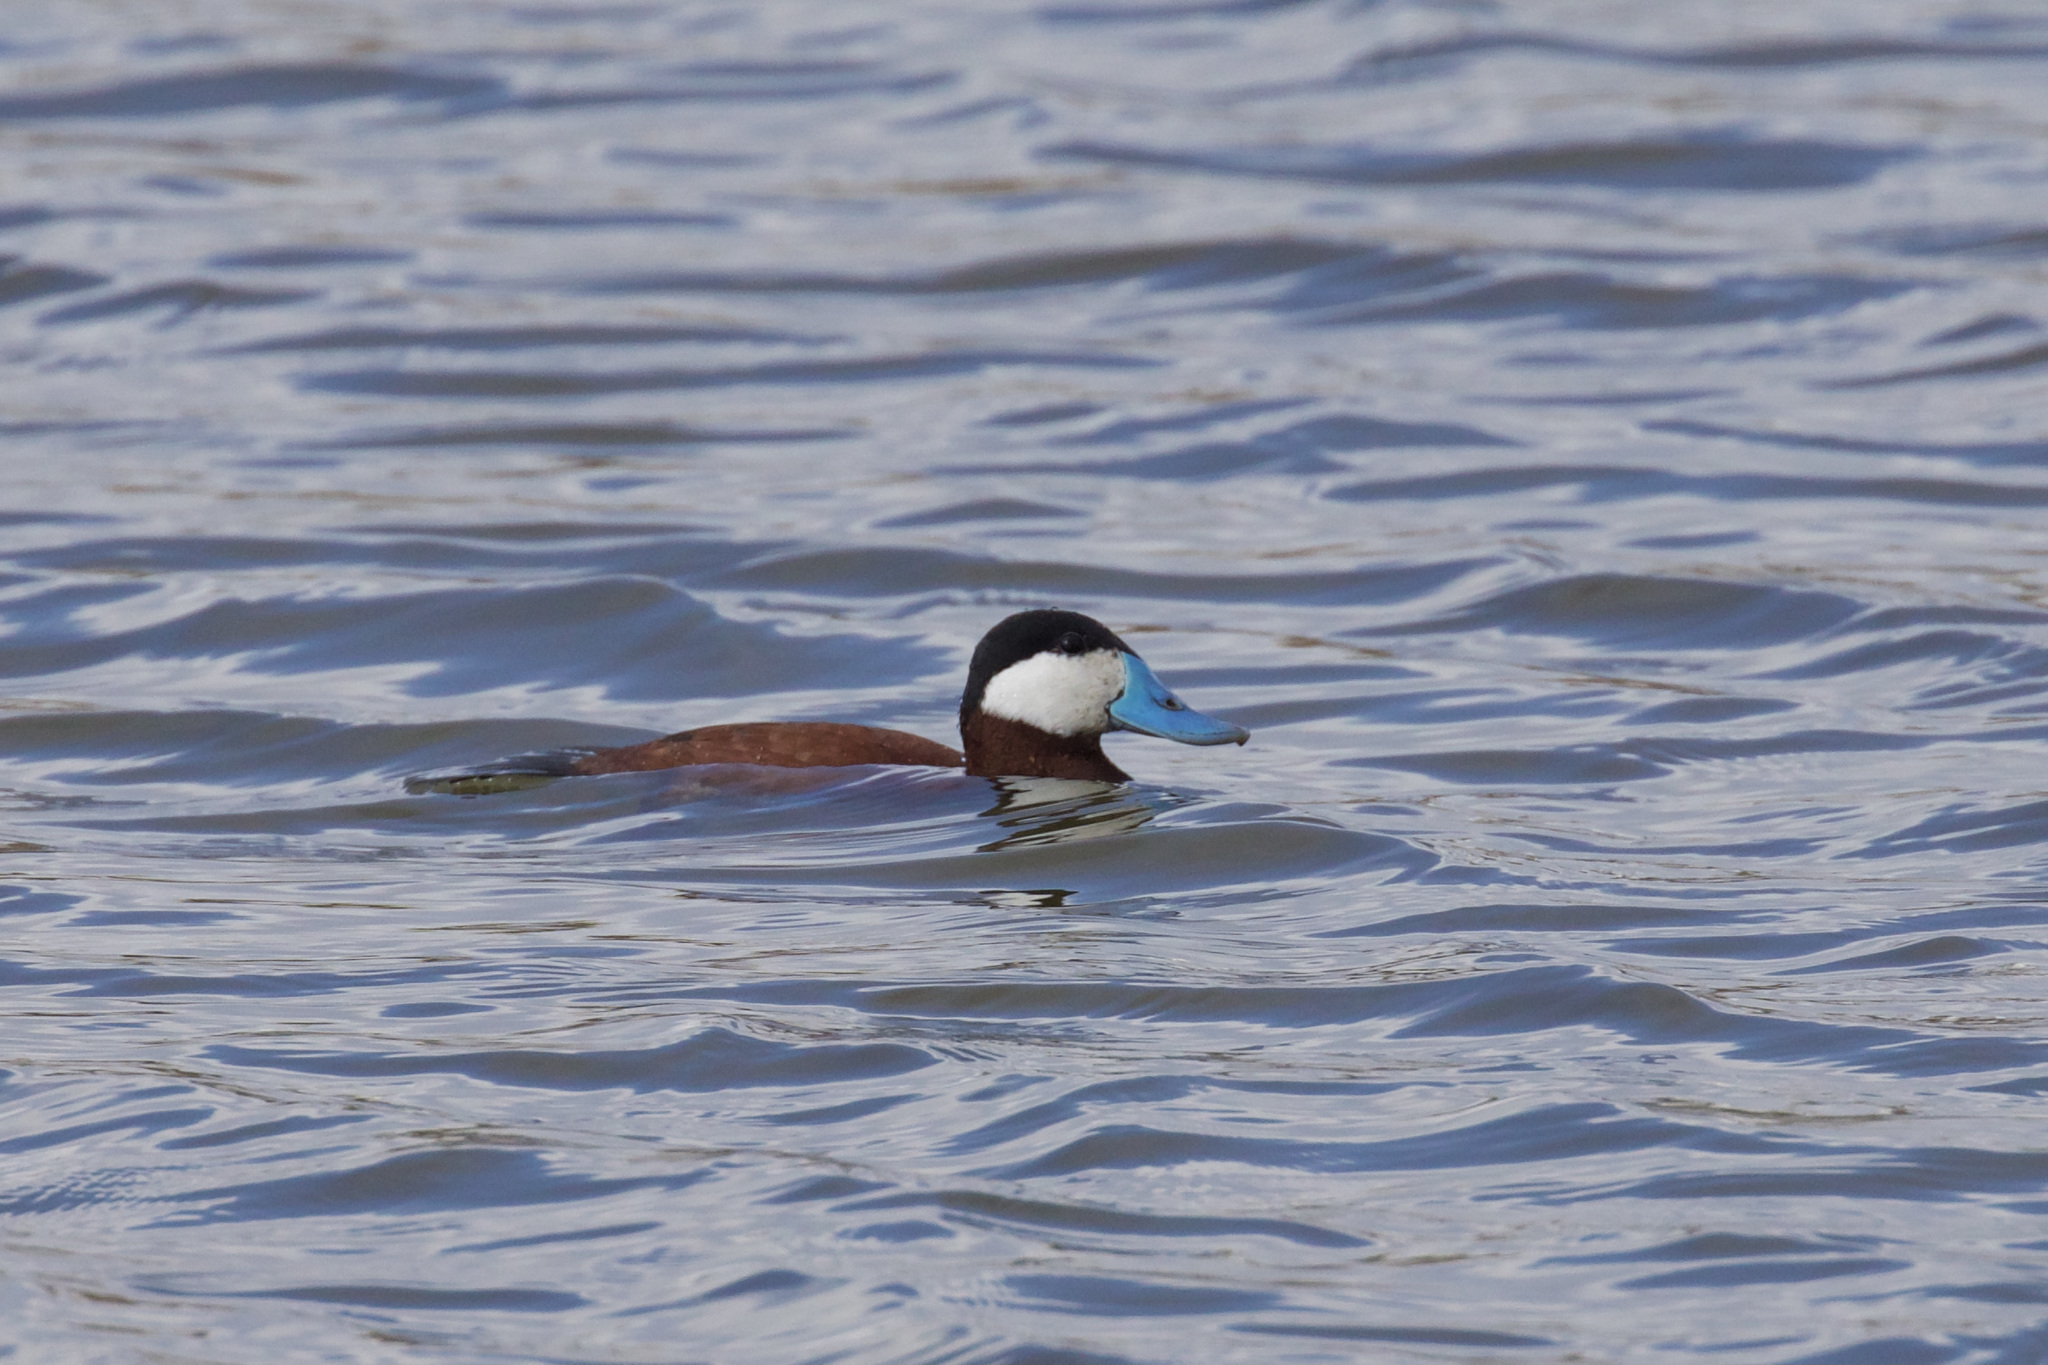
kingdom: Animalia
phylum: Chordata
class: Aves
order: Anseriformes
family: Anatidae
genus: Oxyura
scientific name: Oxyura jamaicensis
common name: Ruddy duck
